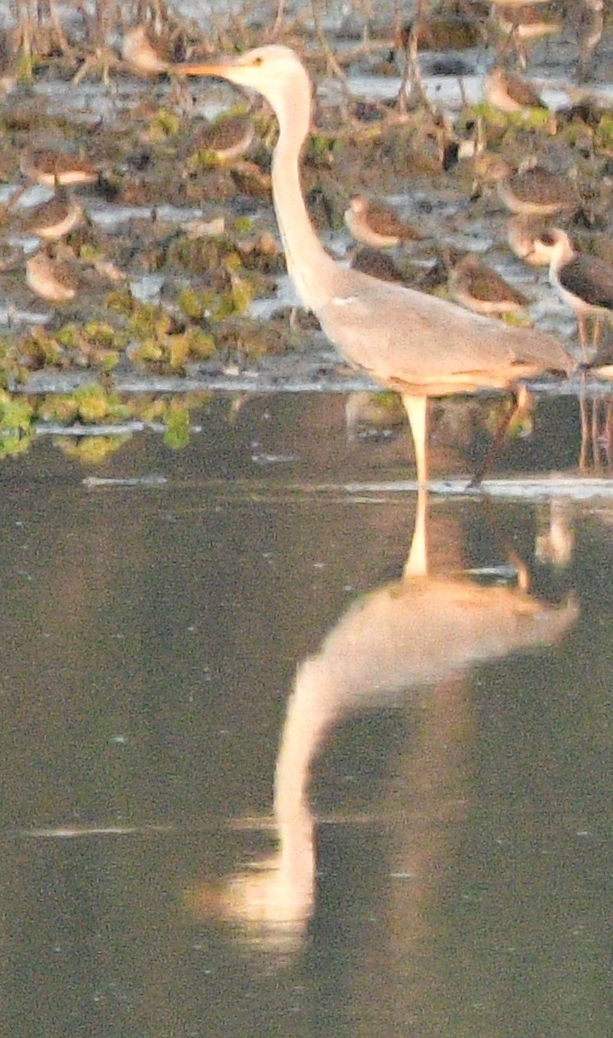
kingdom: Animalia
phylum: Chordata
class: Aves
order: Pelecaniformes
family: Ardeidae
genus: Ardea
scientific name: Ardea cinerea
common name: Grey heron
